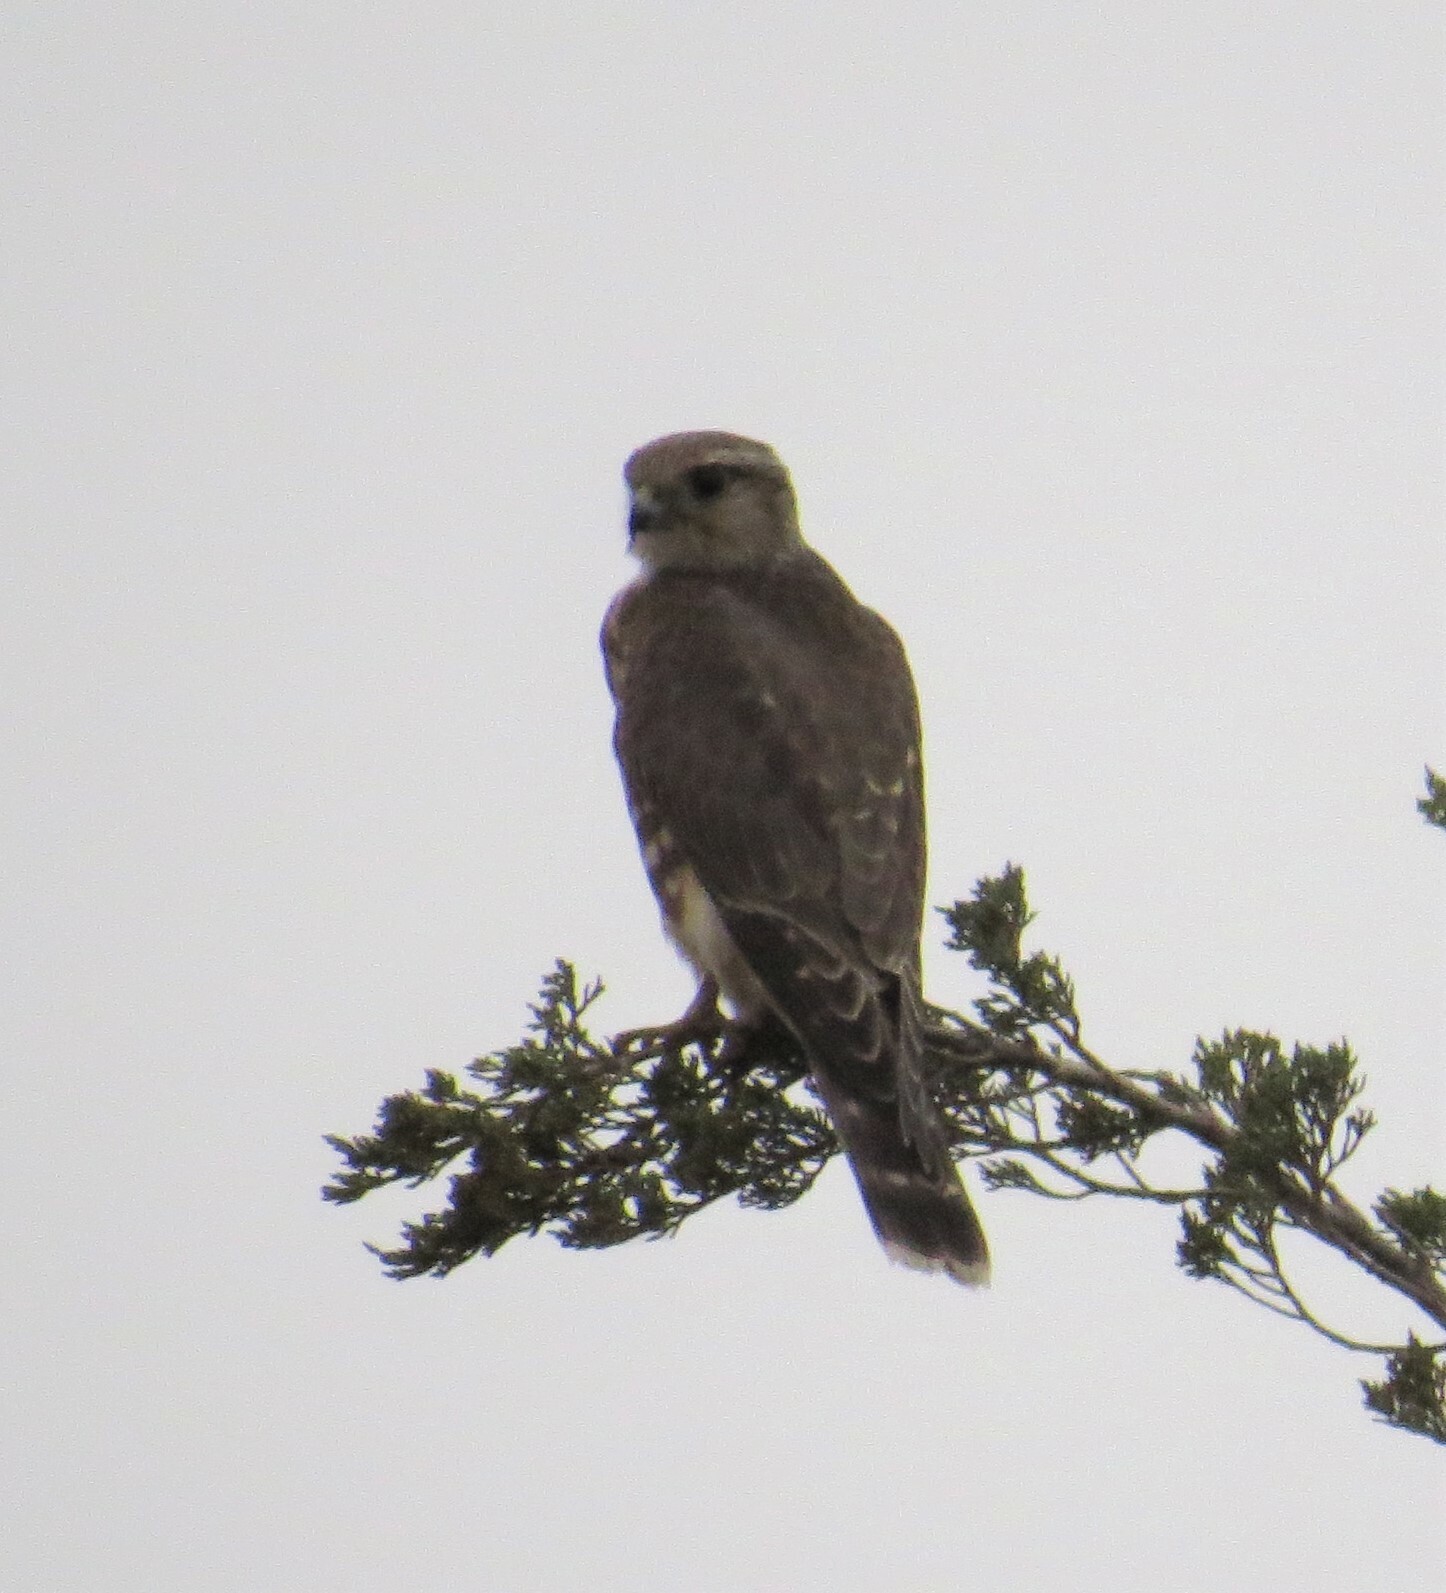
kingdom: Animalia
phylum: Chordata
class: Aves
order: Falconiformes
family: Falconidae
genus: Falco
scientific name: Falco columbarius
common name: Merlin
